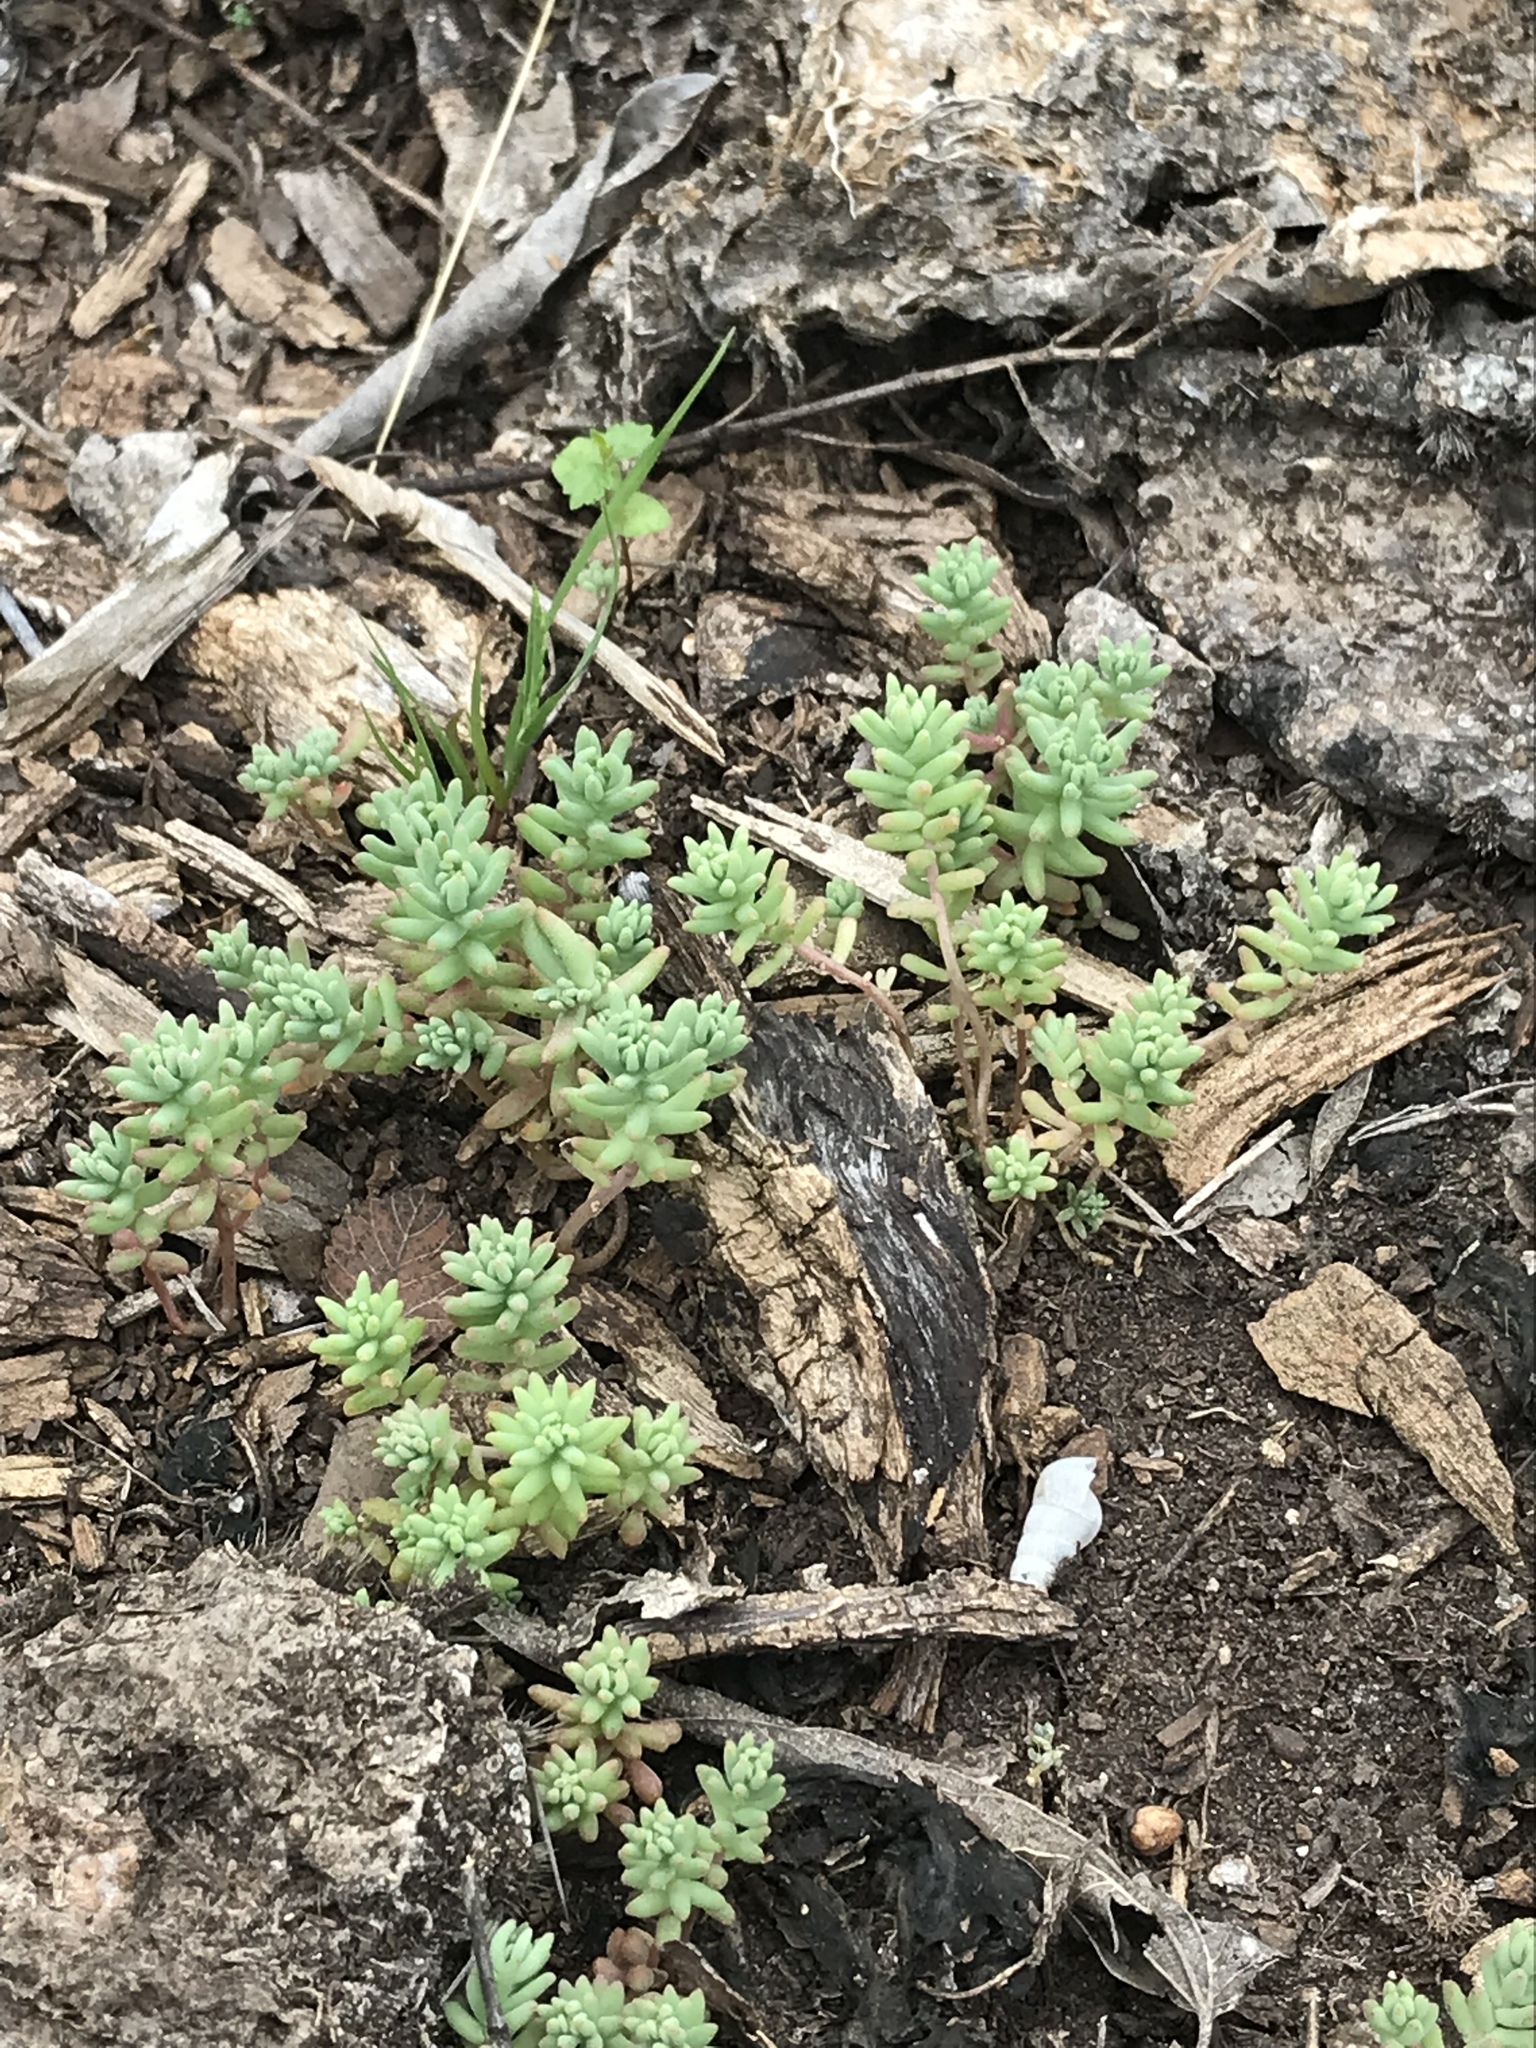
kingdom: Plantae
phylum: Tracheophyta
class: Magnoliopsida
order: Saxifragales
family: Crassulaceae
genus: Sedum
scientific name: Sedum nuttallii
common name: Yellow stonecrop
